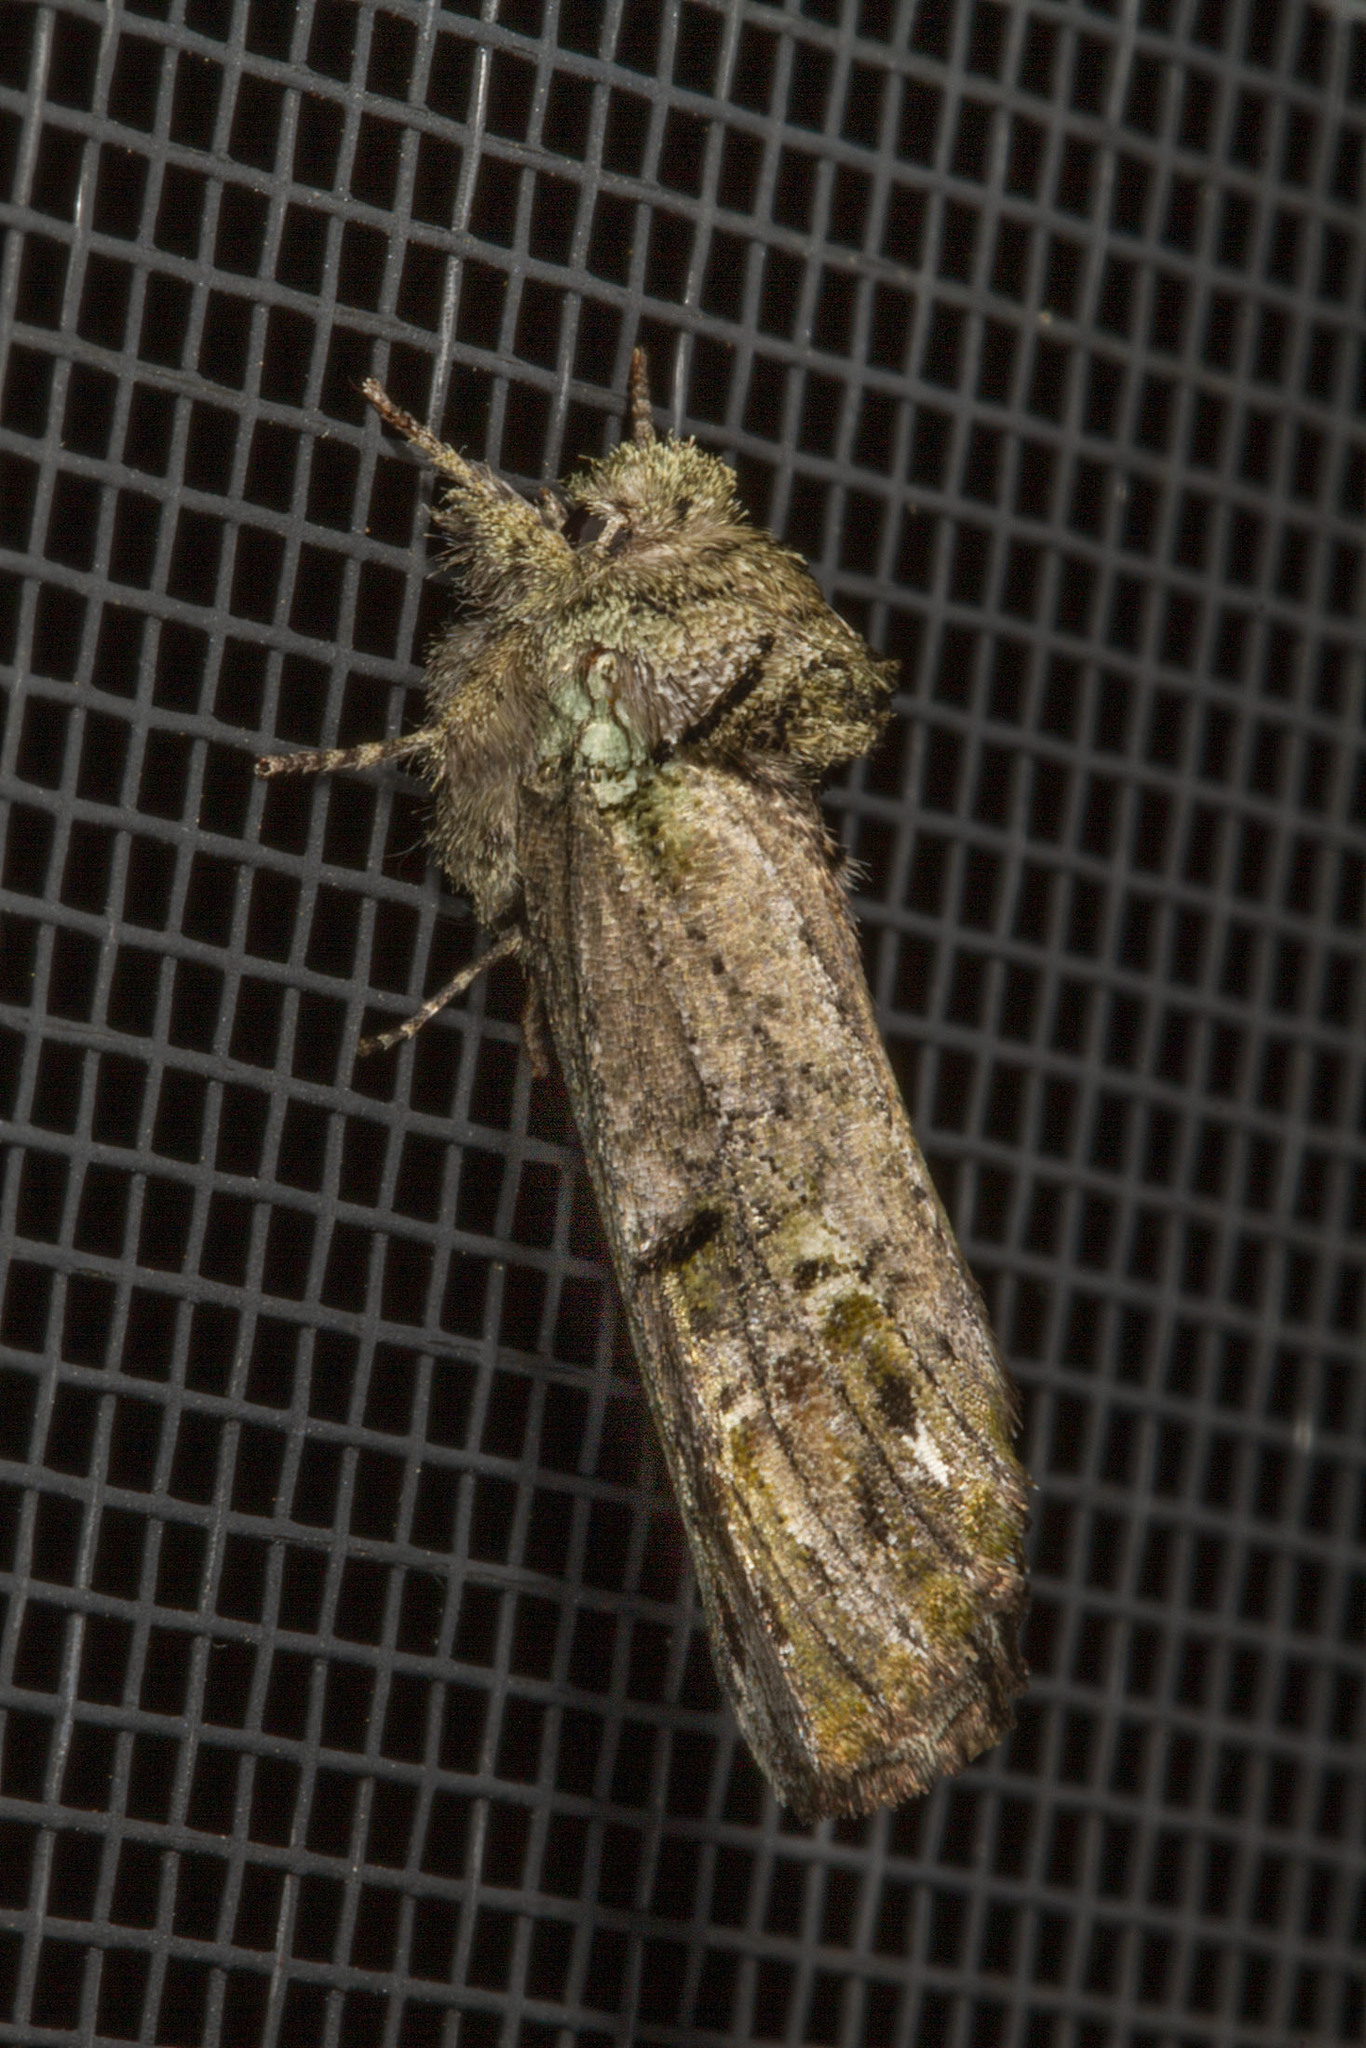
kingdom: Animalia
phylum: Arthropoda
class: Insecta
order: Lepidoptera
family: Notodontidae
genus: Schizura
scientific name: Schizura
